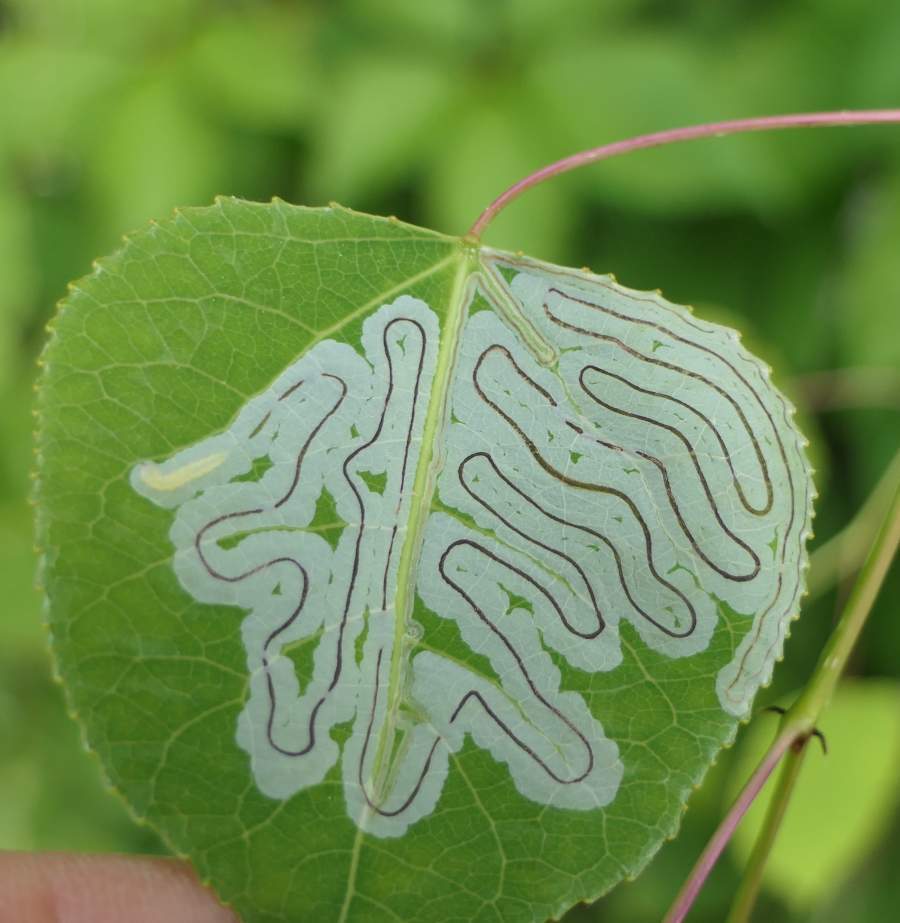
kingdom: Animalia
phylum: Arthropoda
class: Insecta
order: Lepidoptera
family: Gracillariidae
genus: Phyllocnistis
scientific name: Phyllocnistis populiella
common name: Aspen serpentine leafminer moth
